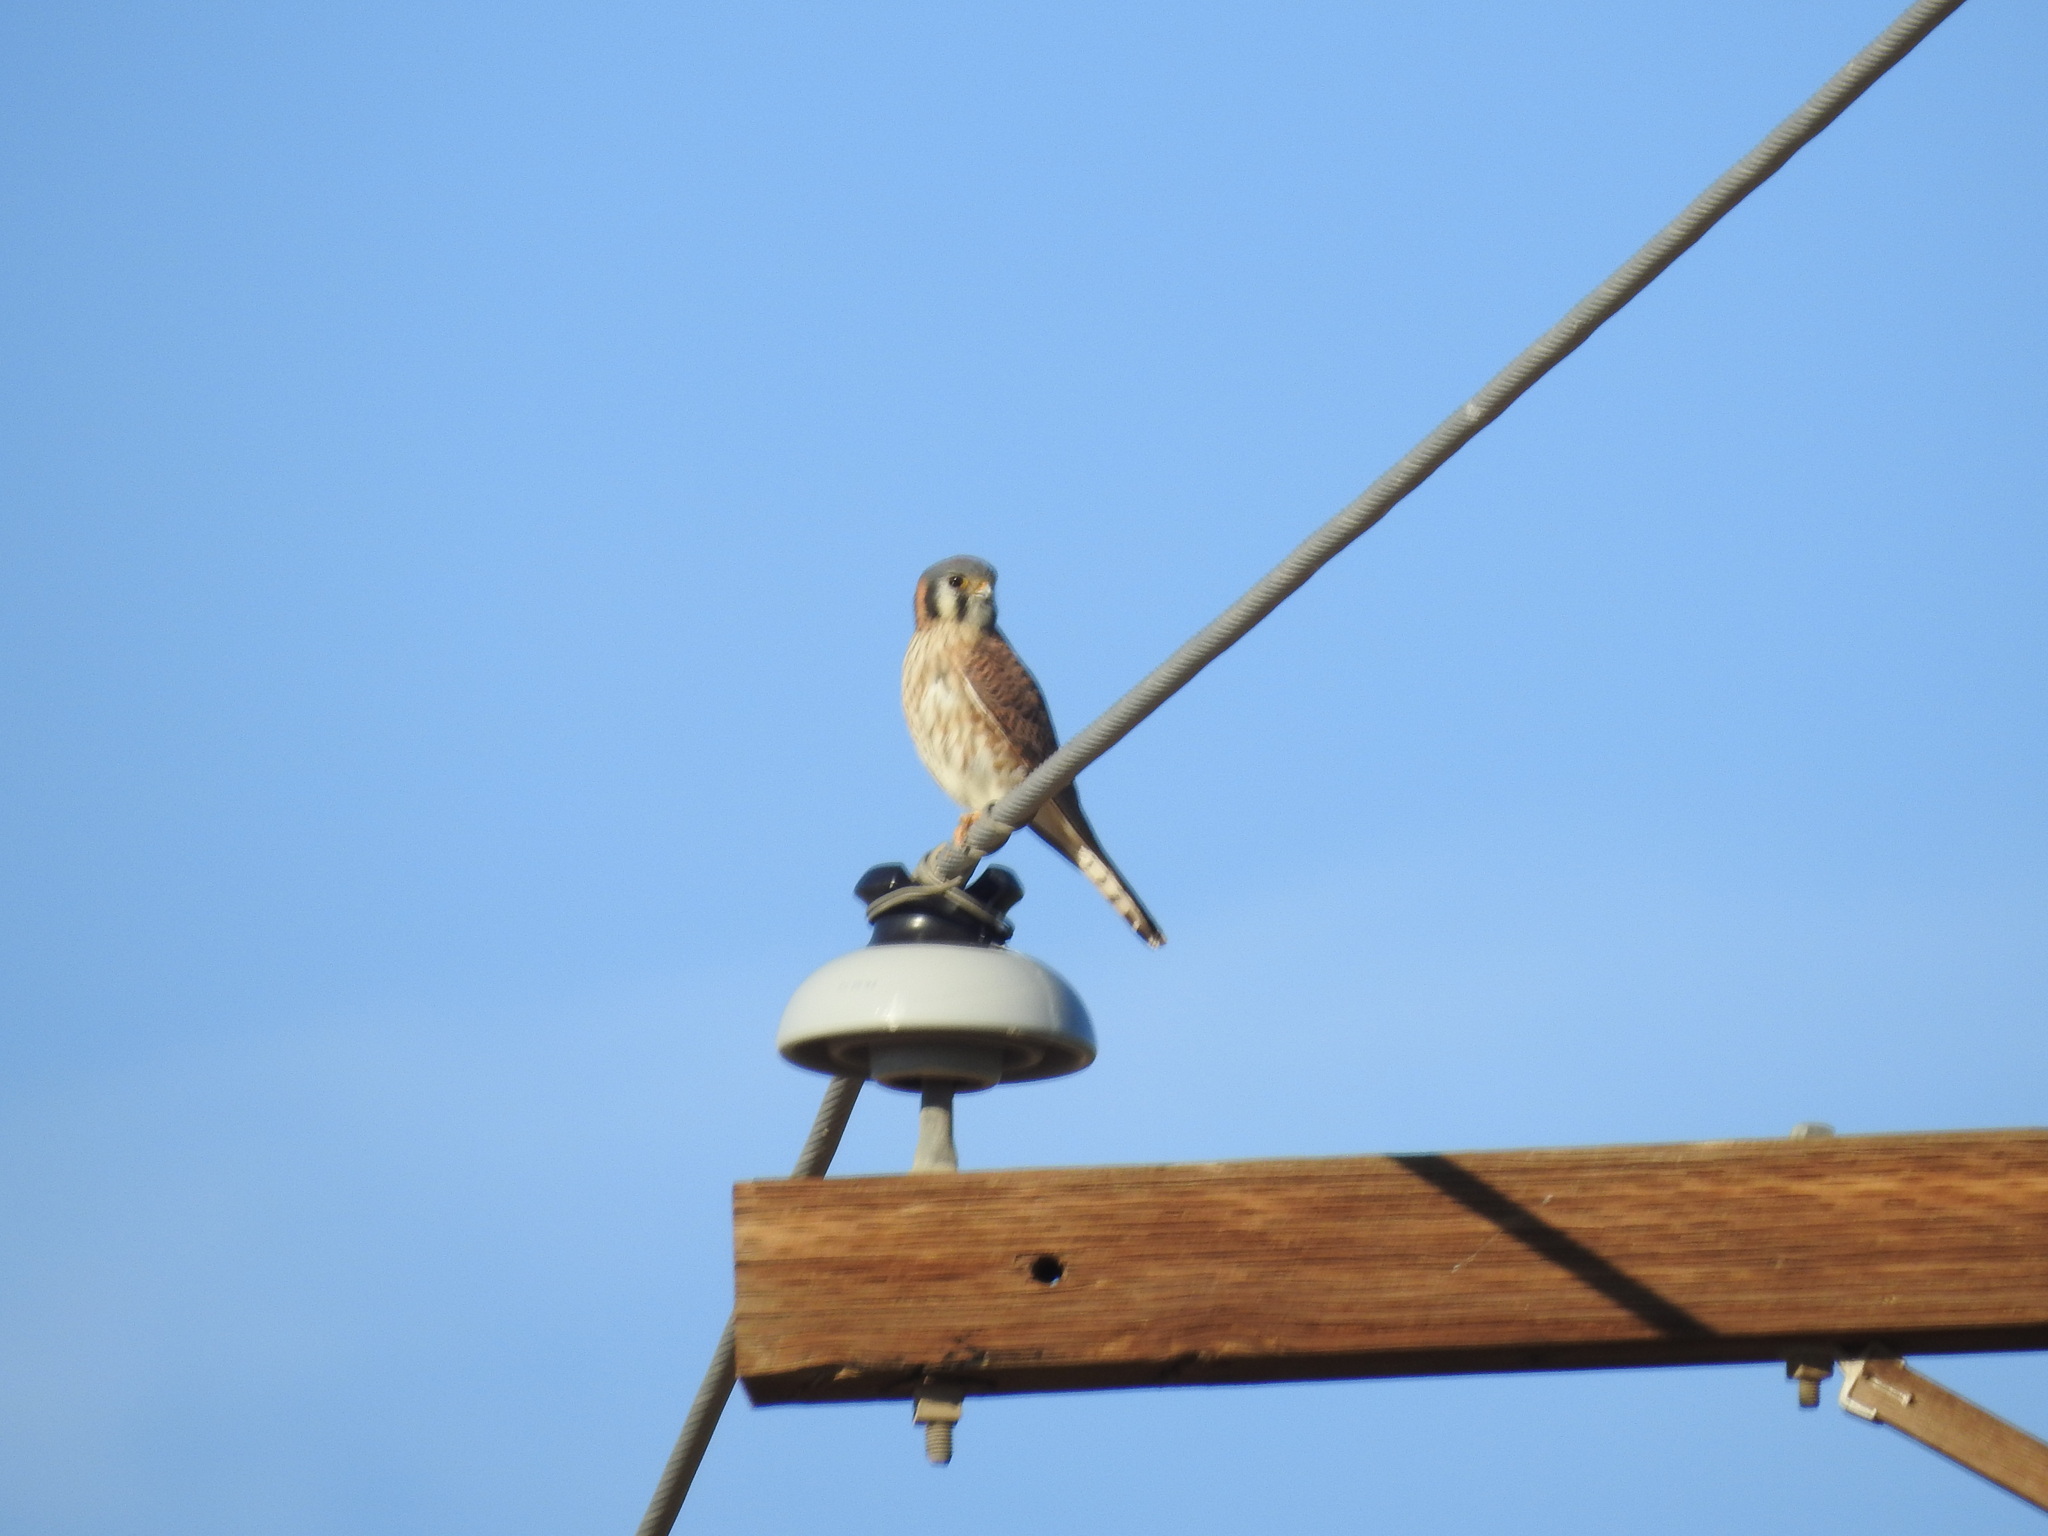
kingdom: Animalia
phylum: Chordata
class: Aves
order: Falconiformes
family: Falconidae
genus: Falco
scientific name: Falco sparverius
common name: American kestrel
